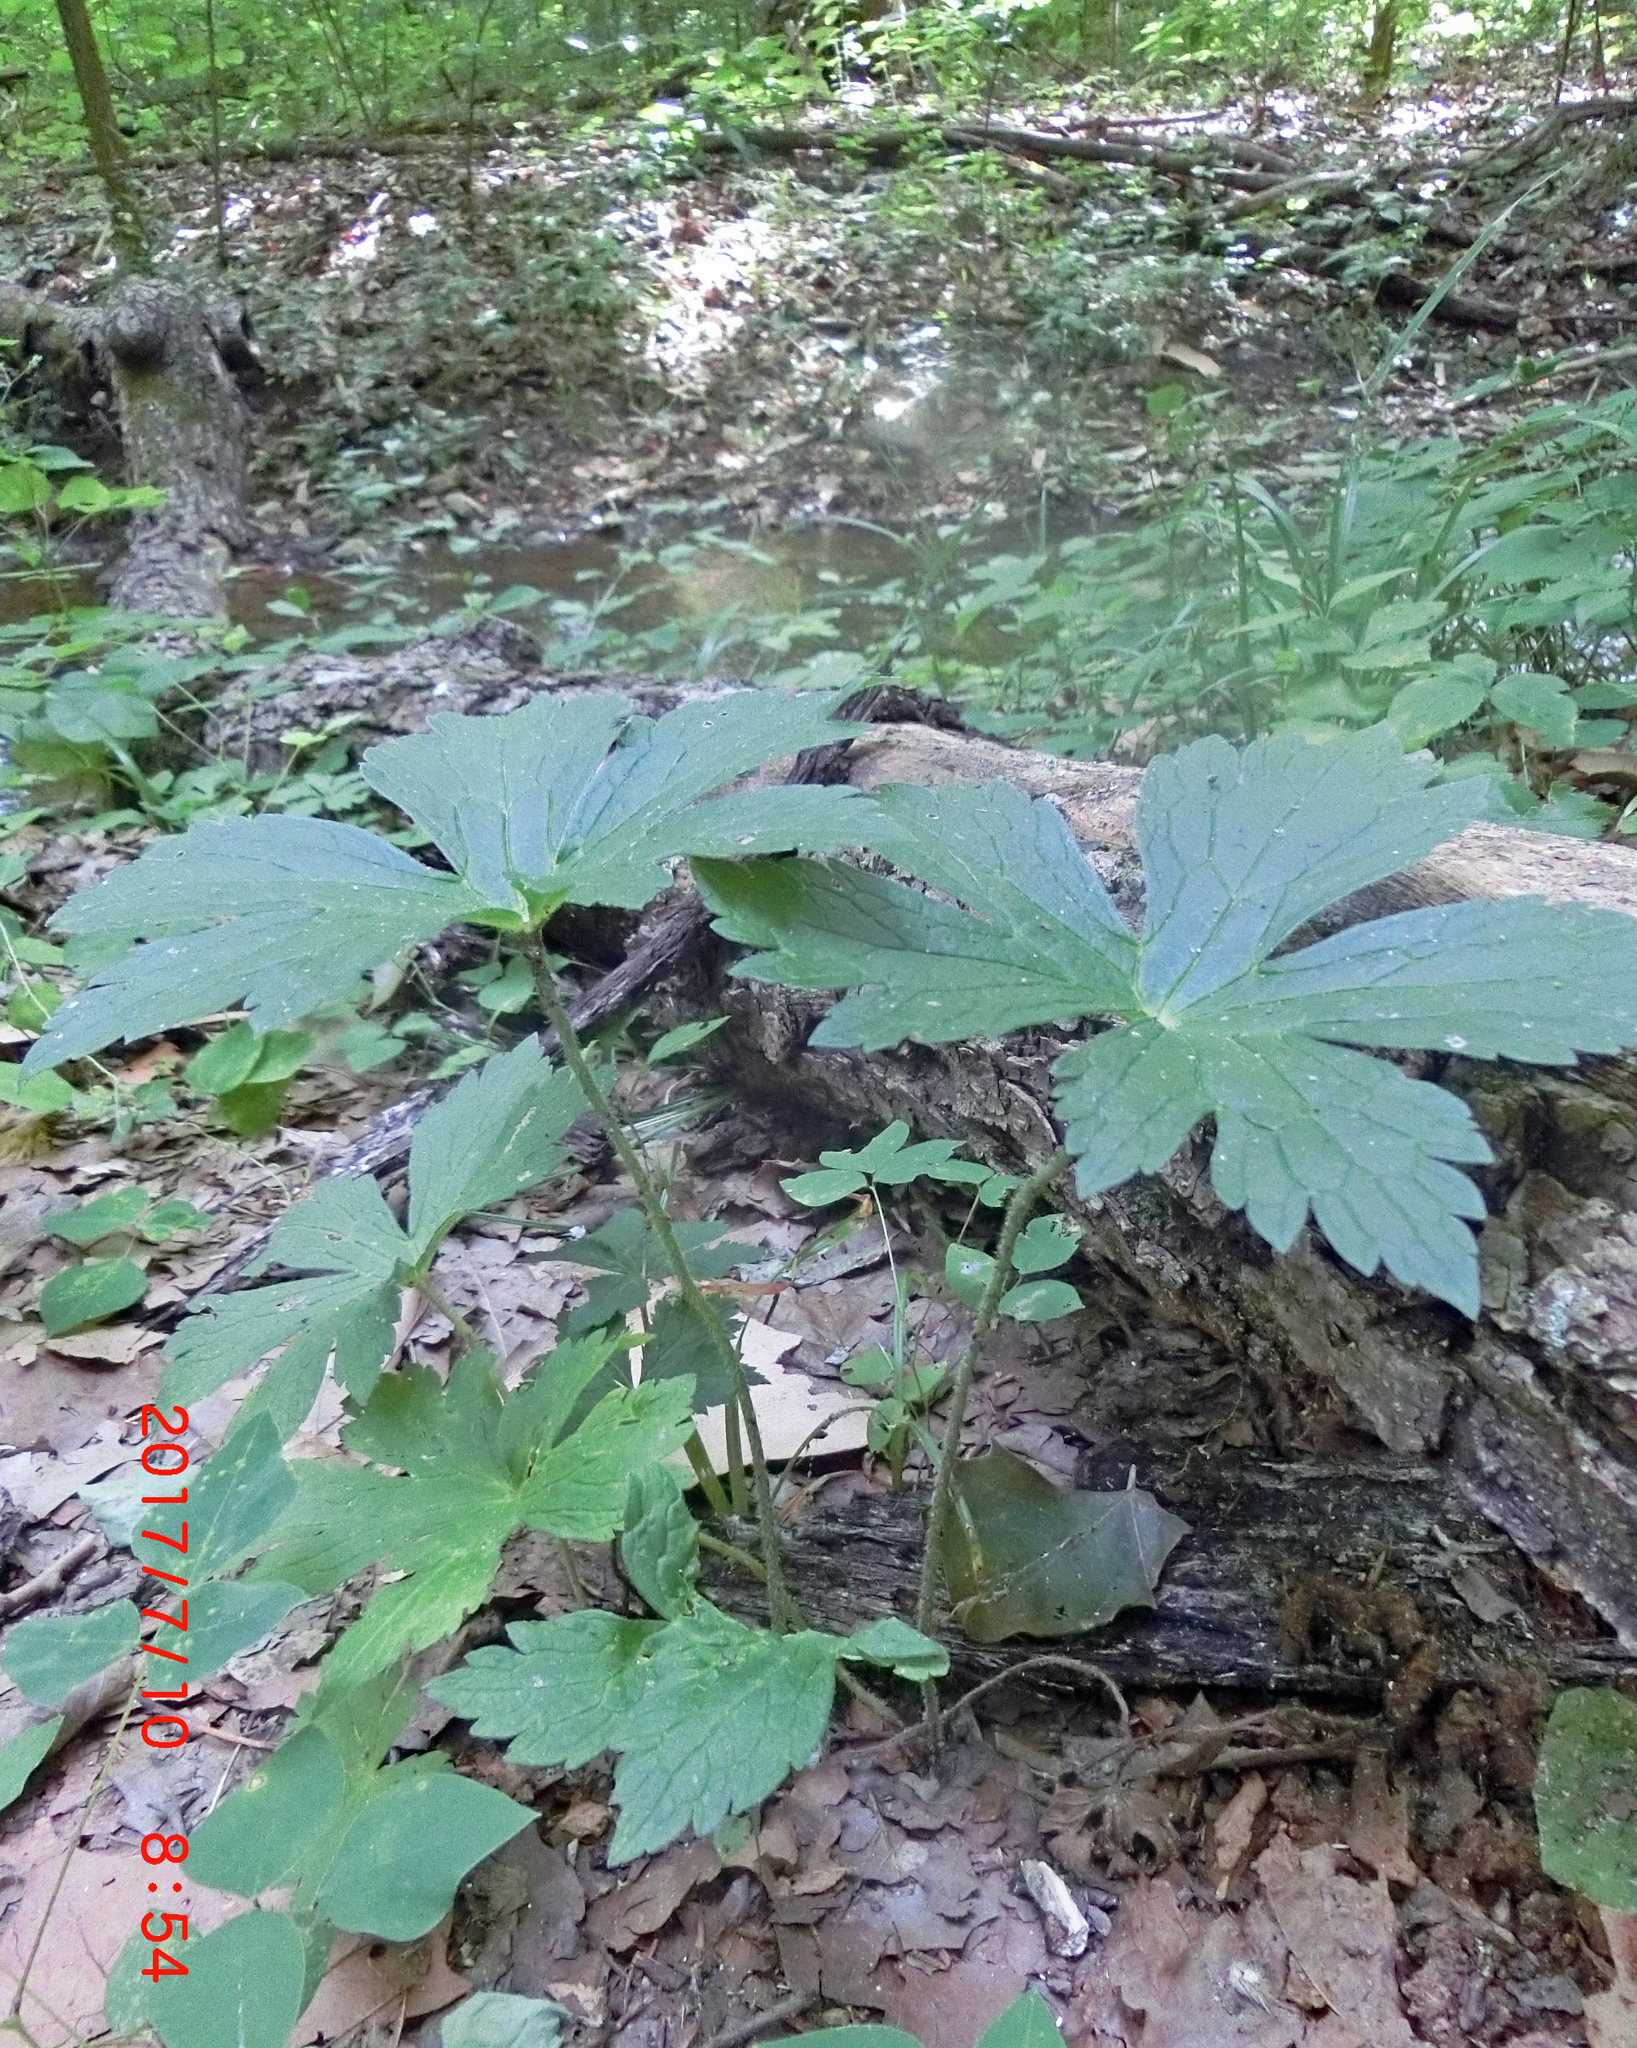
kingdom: Plantae
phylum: Tracheophyta
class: Magnoliopsida
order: Geraniales
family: Geraniaceae
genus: Geranium
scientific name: Geranium maculatum
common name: Spotted geranium
